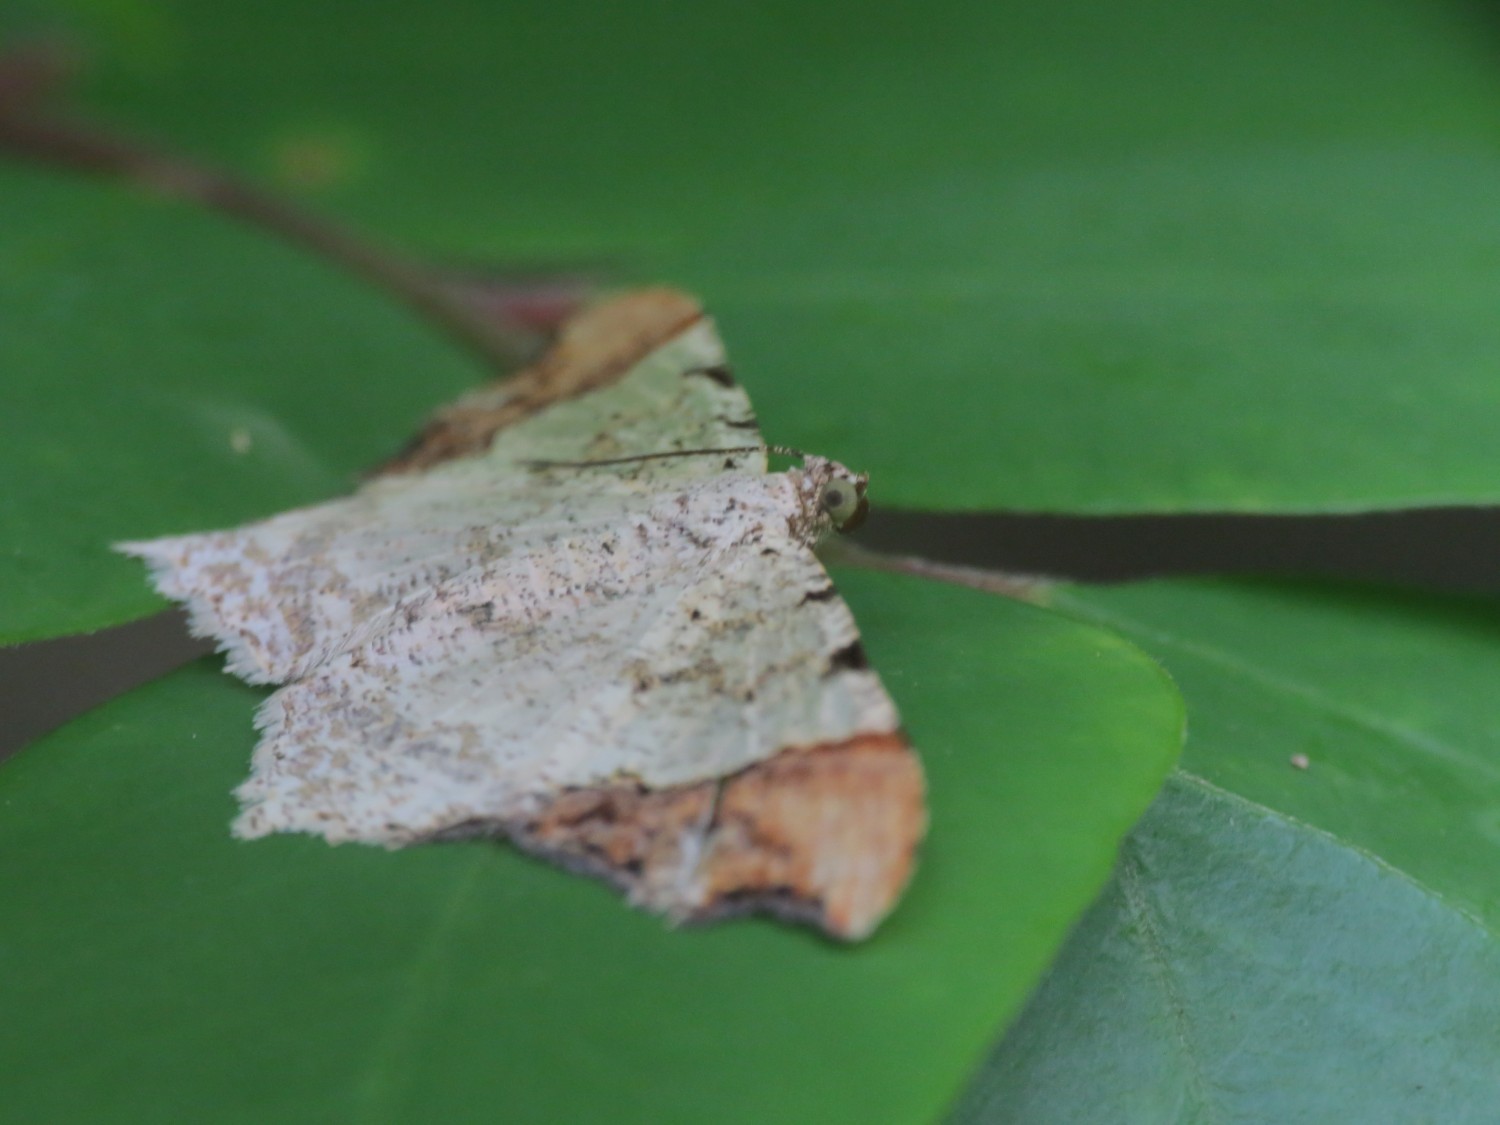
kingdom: Animalia
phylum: Arthropoda
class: Insecta
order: Lepidoptera
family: Geometridae
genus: Semiothisa
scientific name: Semiothisa
